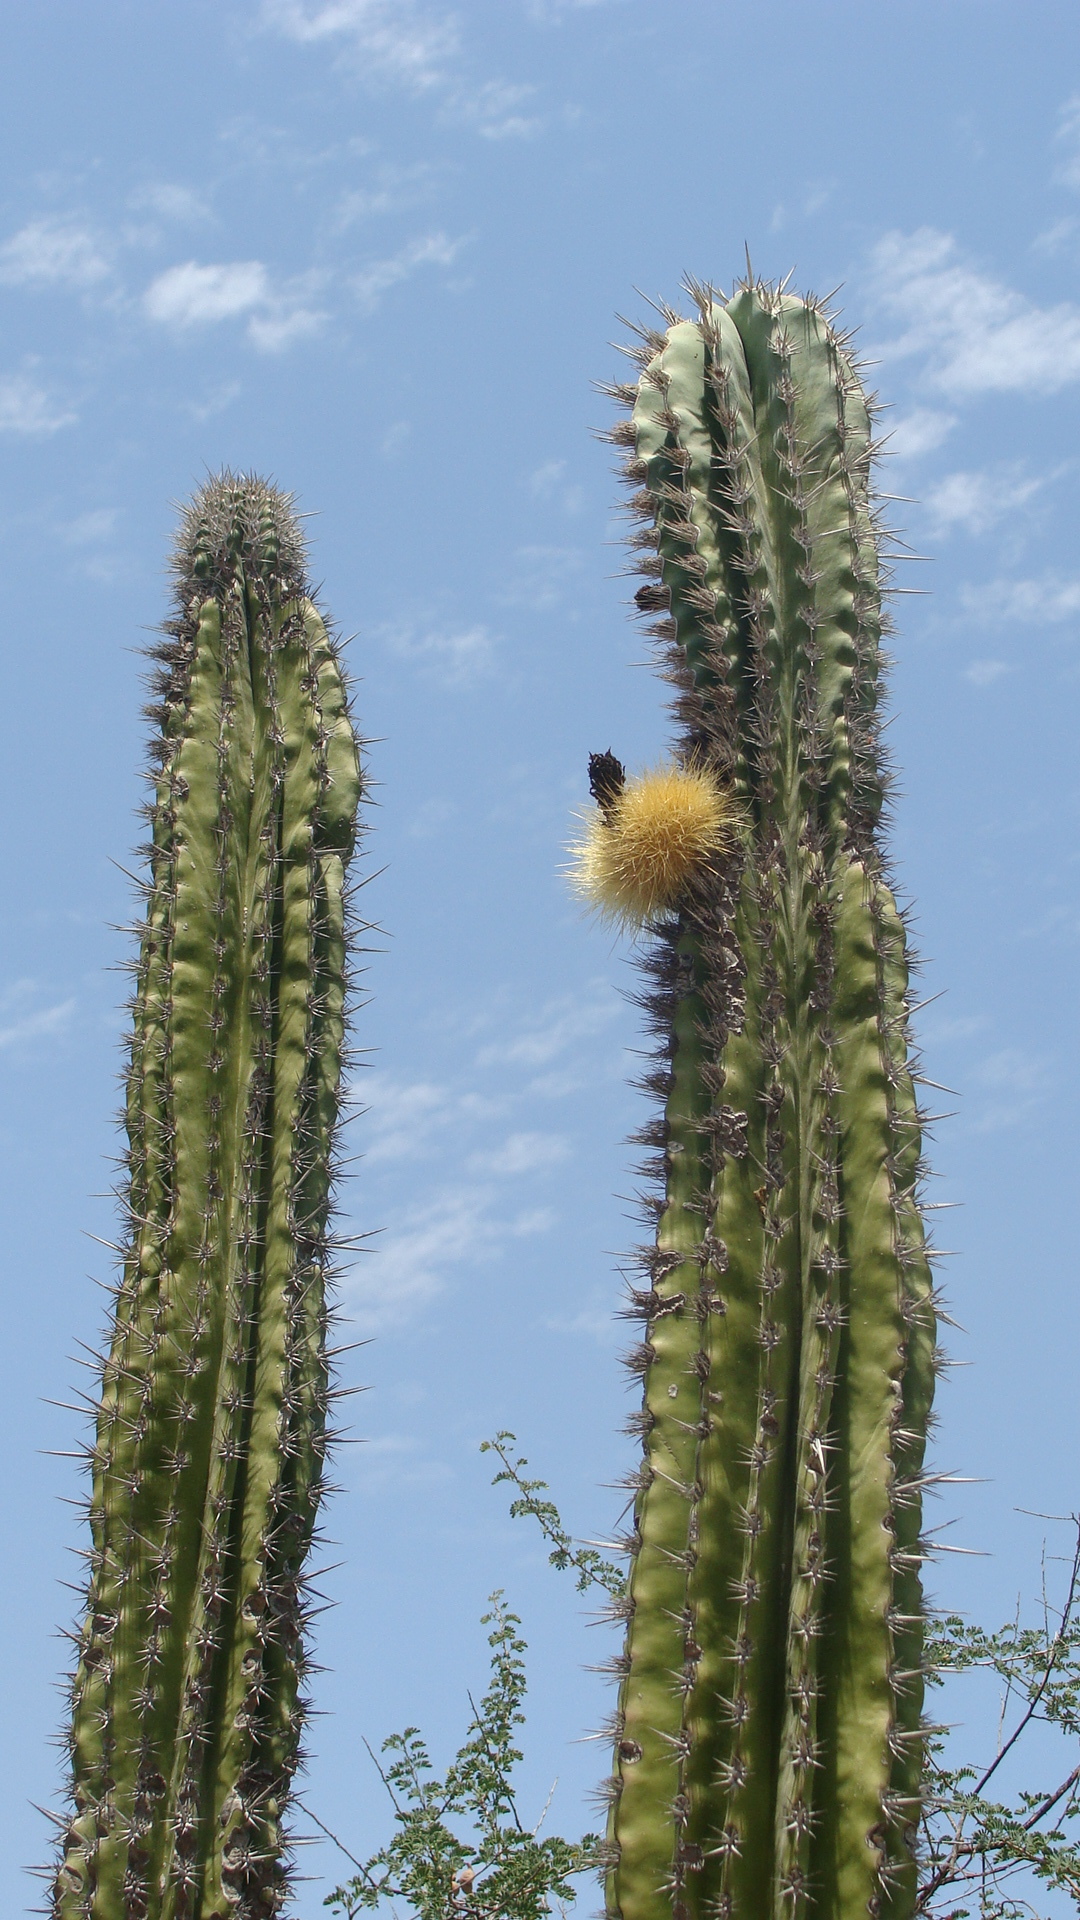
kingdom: Plantae
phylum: Tracheophyta
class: Magnoliopsida
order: Caryophyllales
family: Cactaceae
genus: Pachycereus
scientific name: Pachycereus pecten-aboriginum
